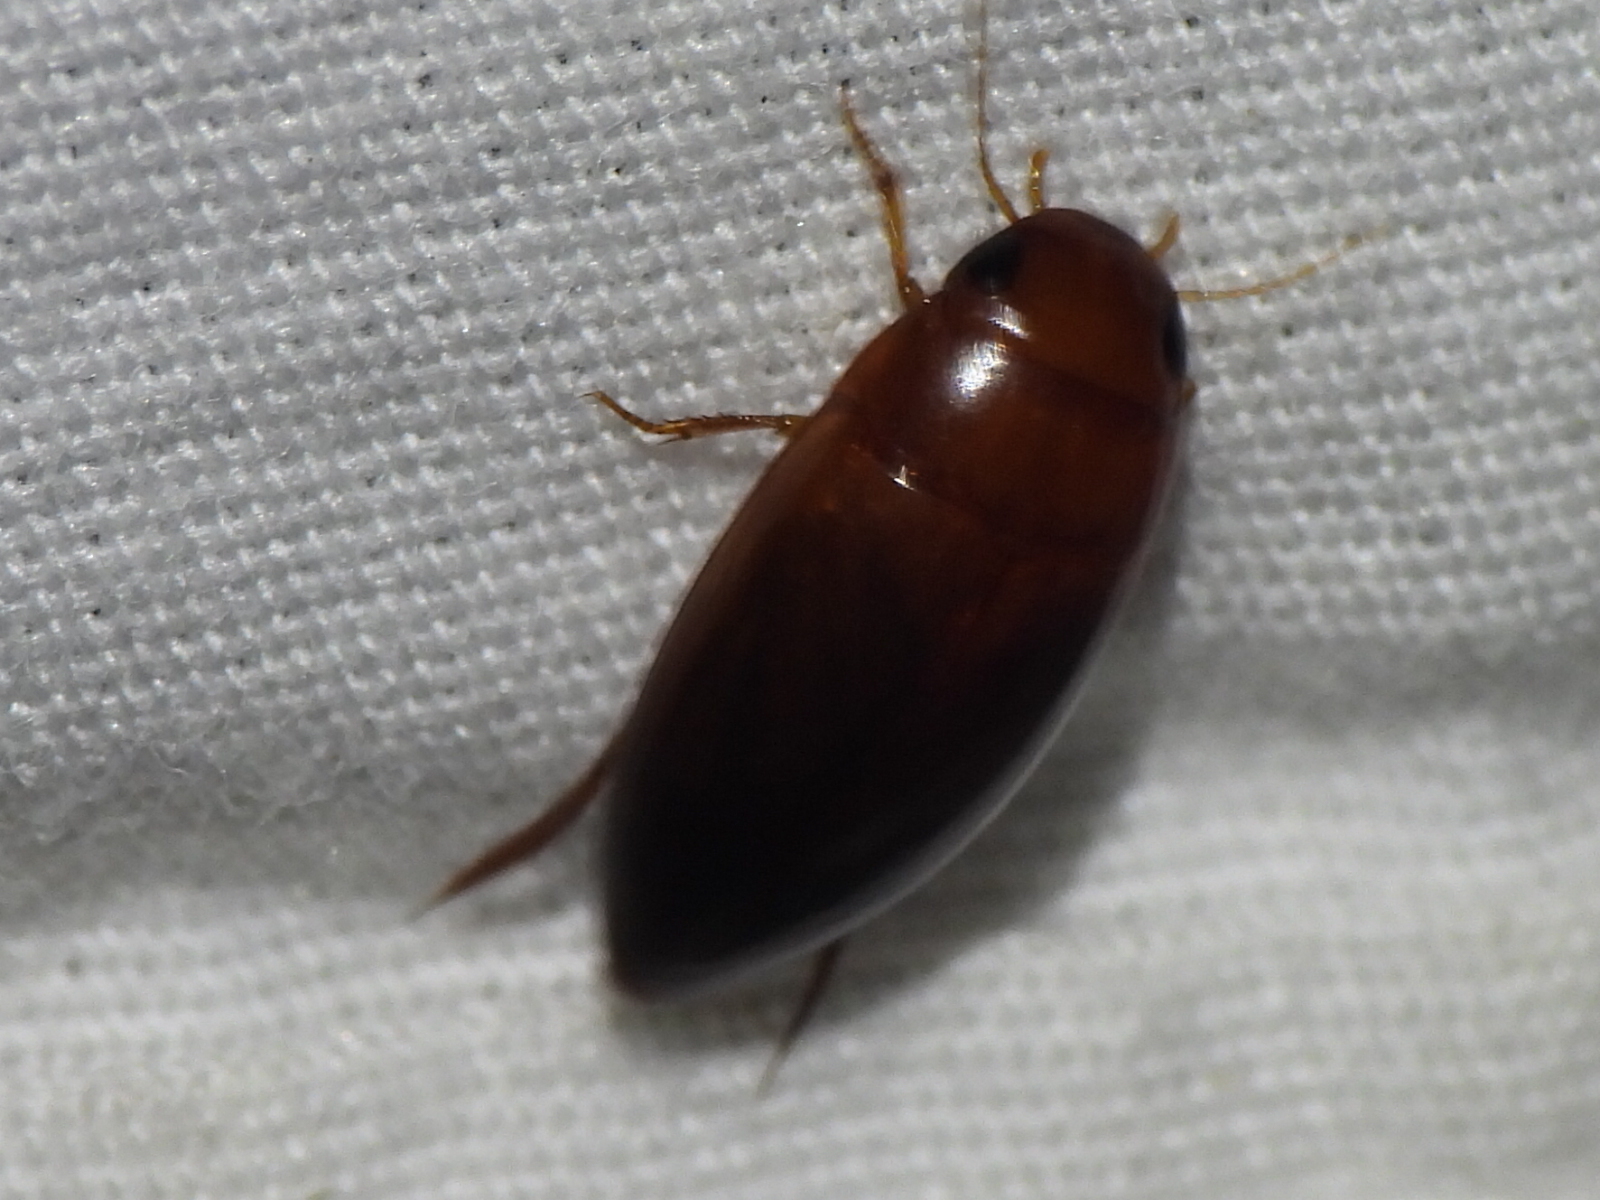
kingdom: Animalia
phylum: Arthropoda
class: Insecta
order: Coleoptera
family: Dytiscidae
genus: Matus
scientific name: Matus
